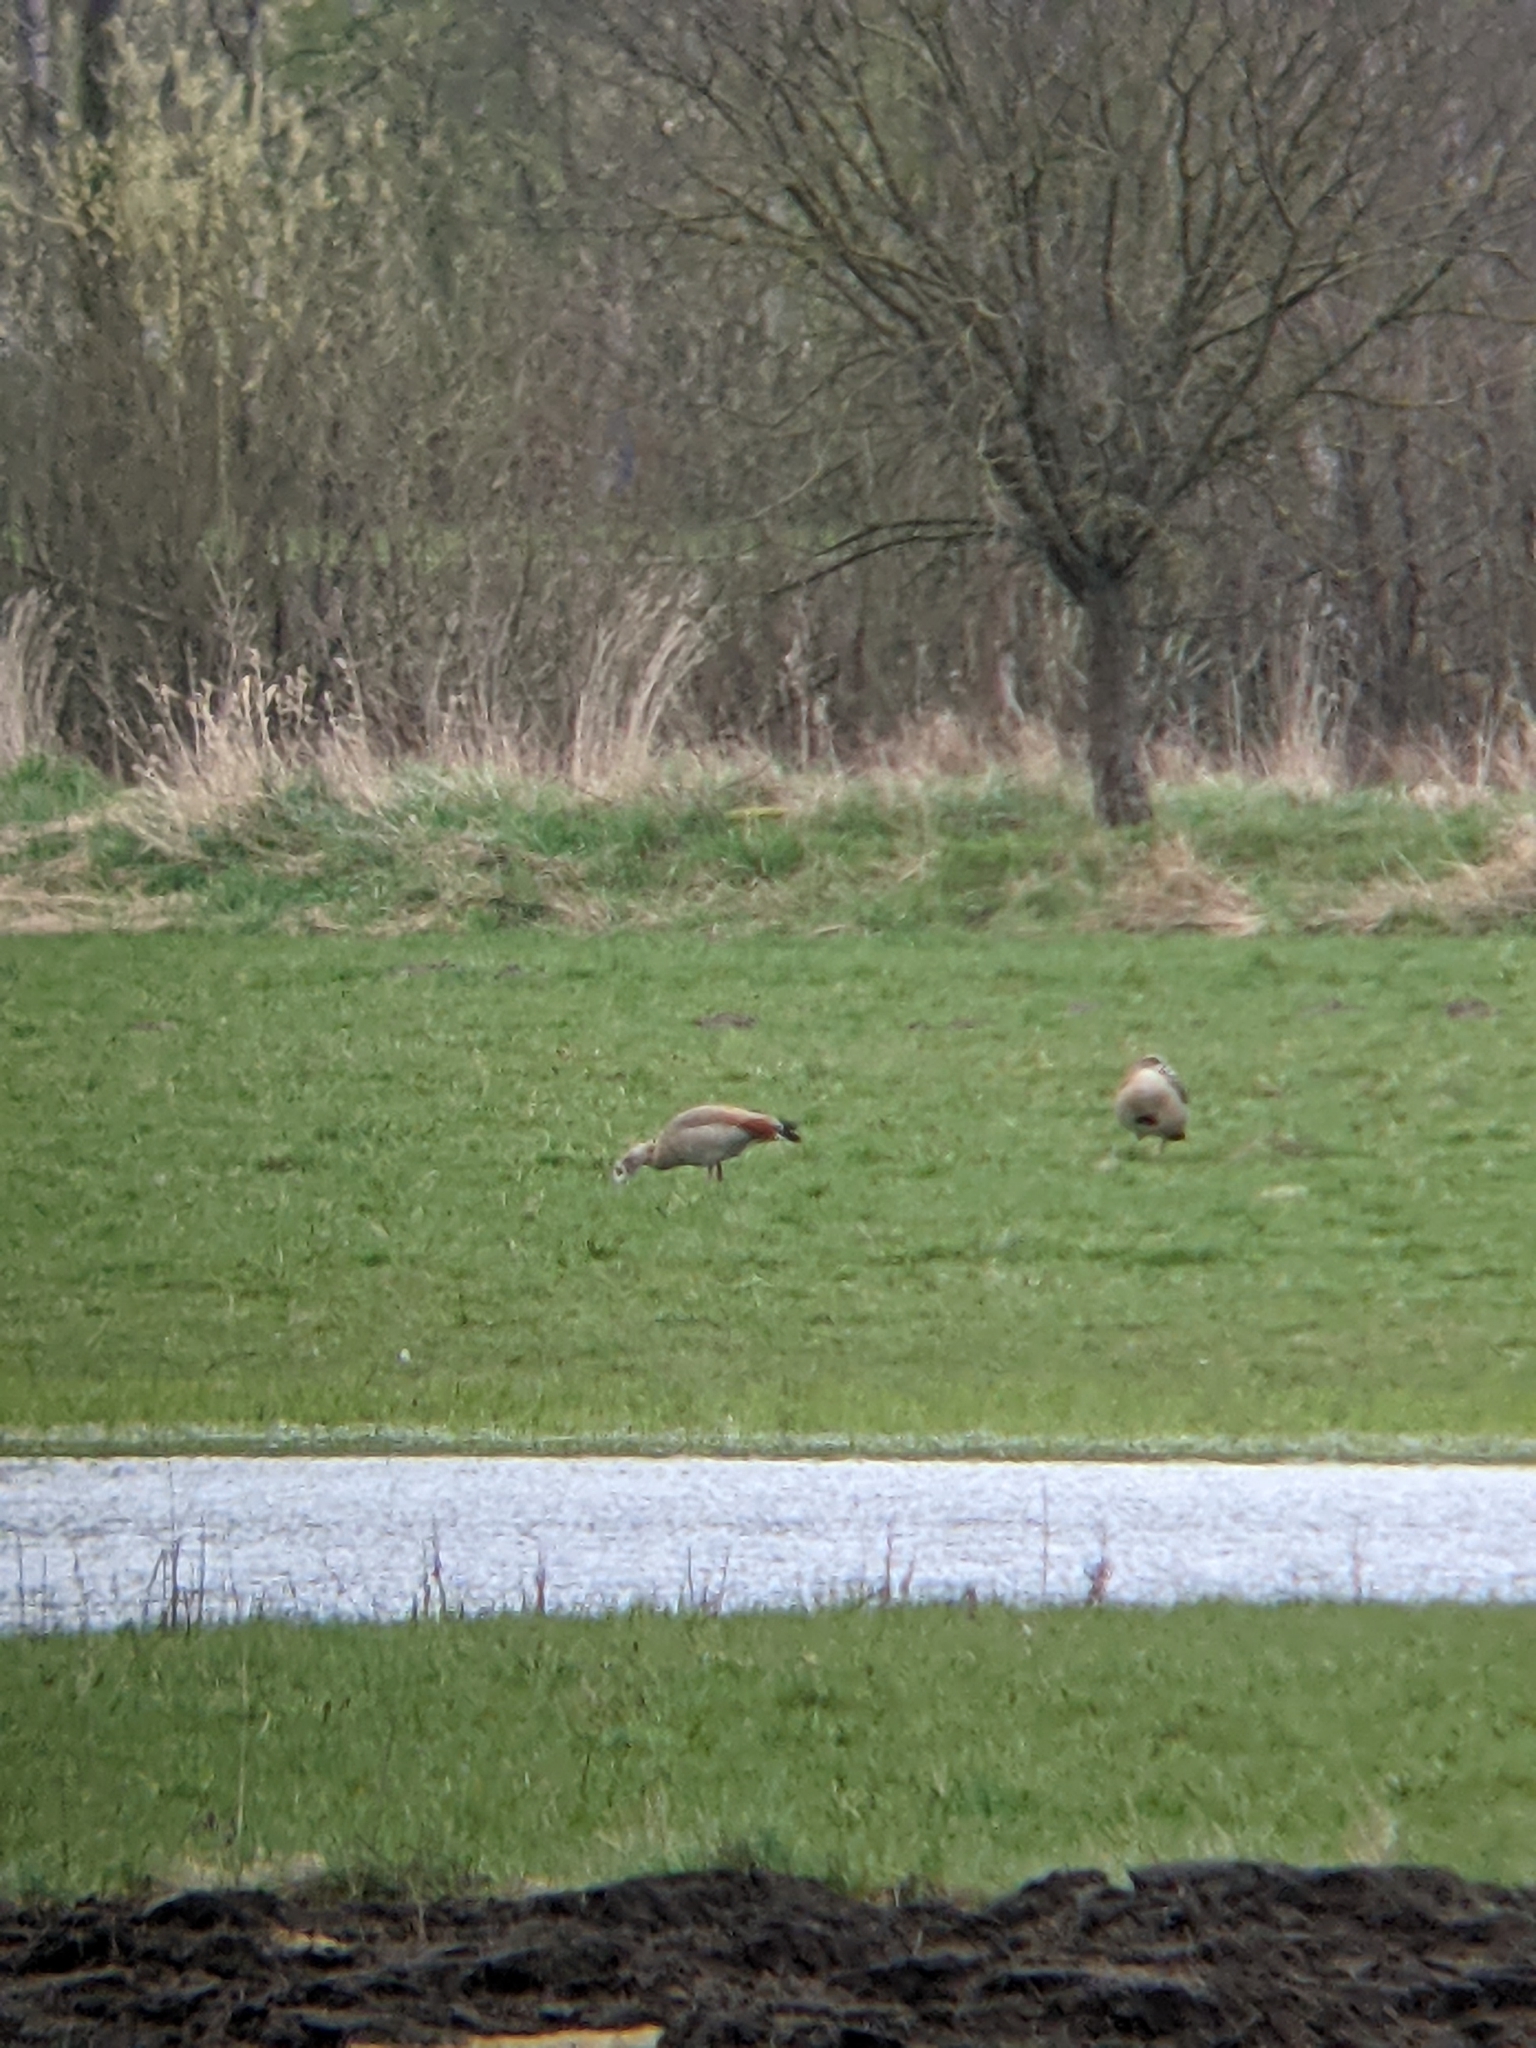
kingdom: Animalia
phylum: Chordata
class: Aves
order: Anseriformes
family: Anatidae
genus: Alopochen
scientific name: Alopochen aegyptiaca
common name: Egyptian goose
